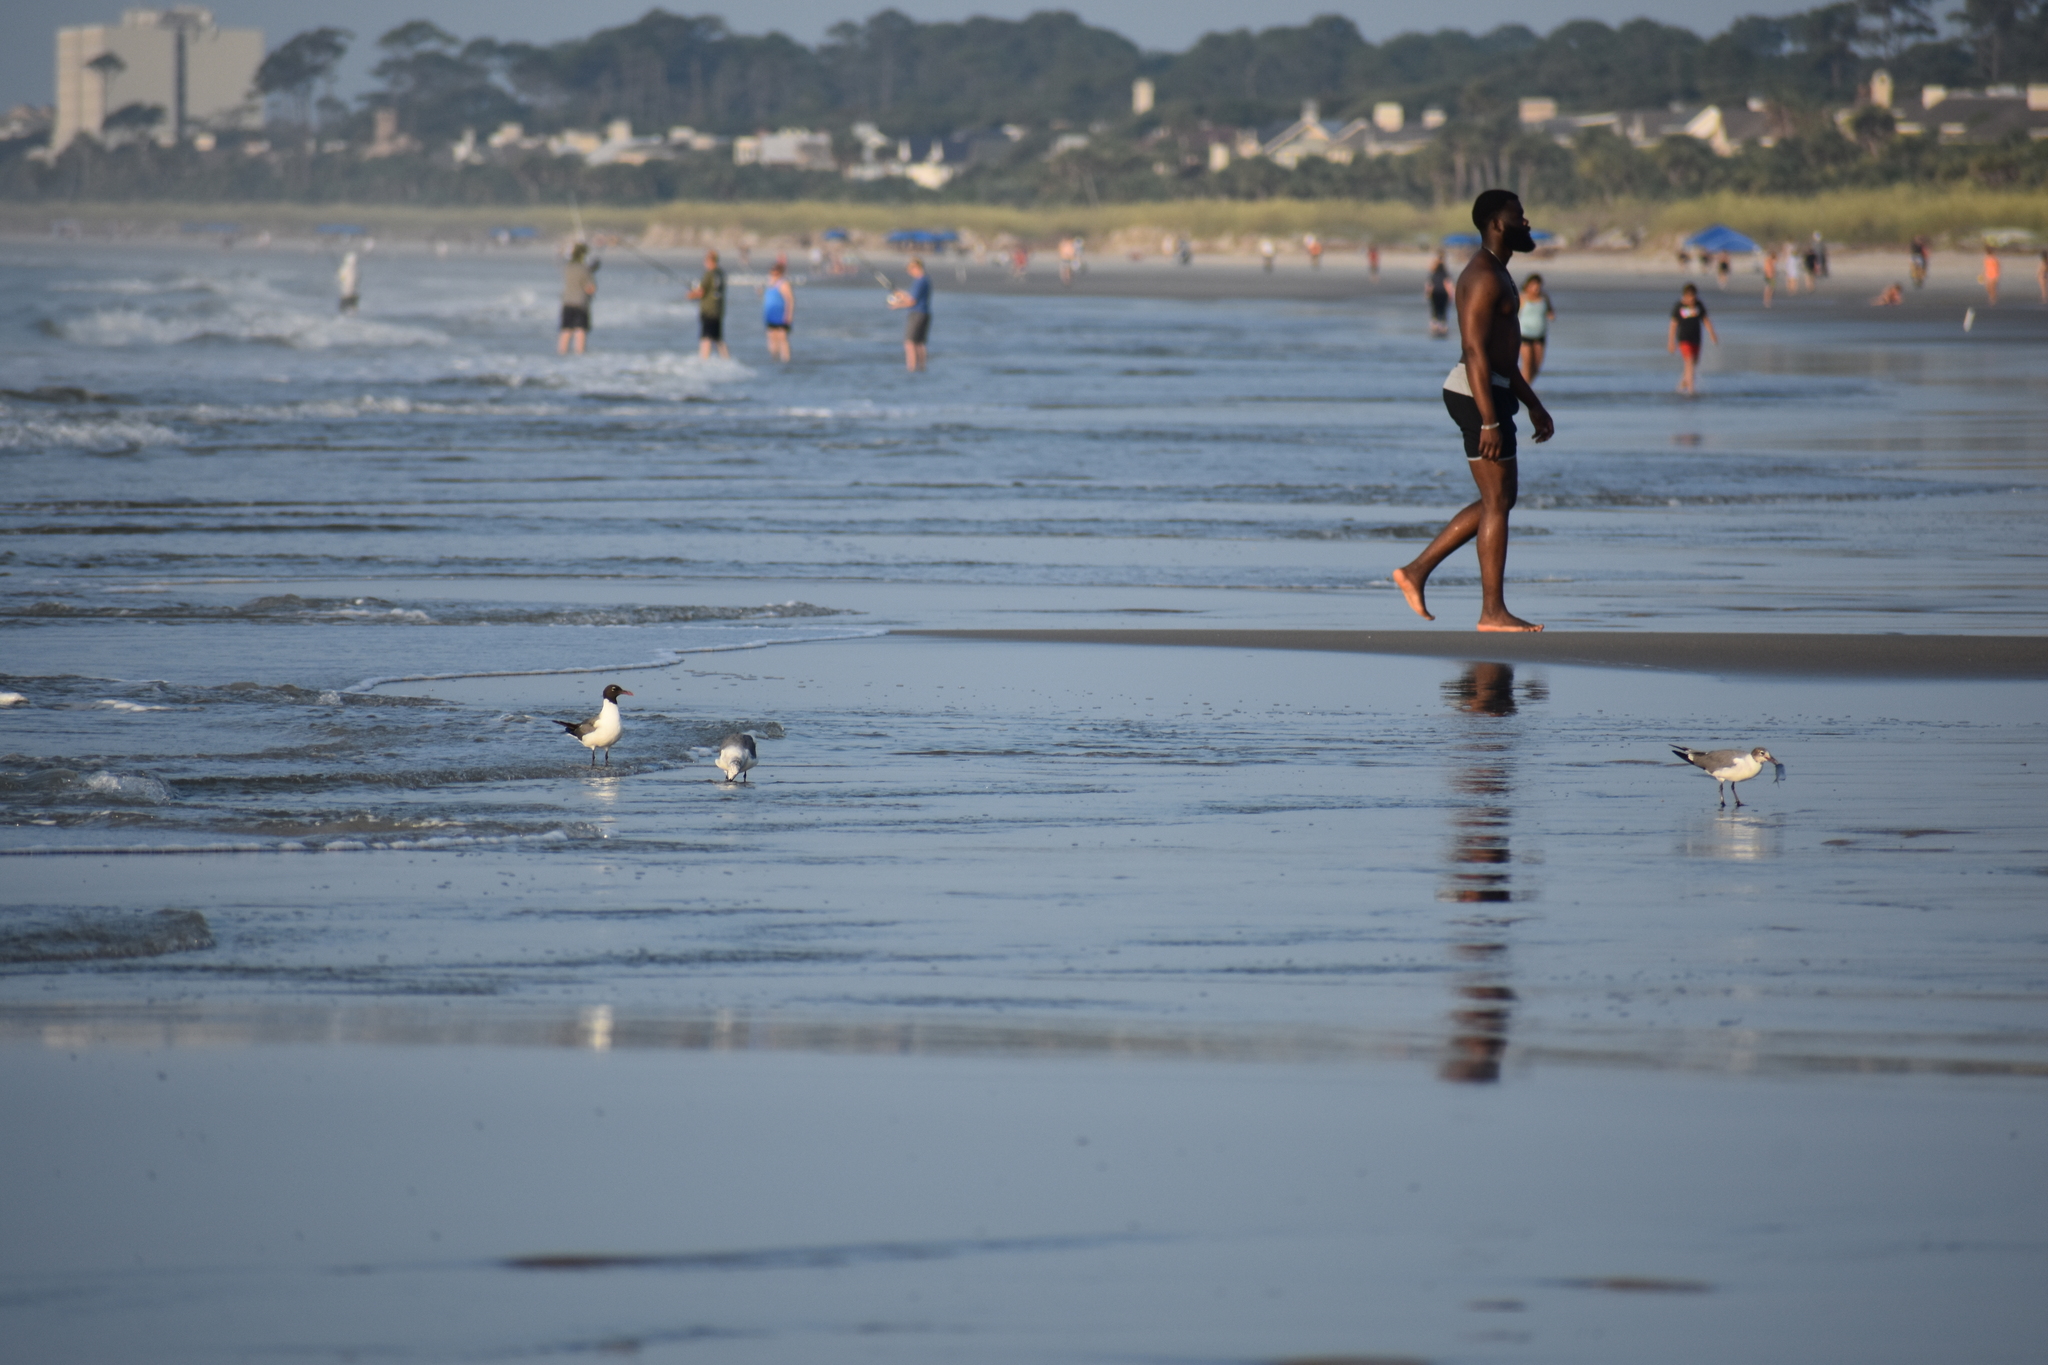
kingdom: Animalia
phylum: Chordata
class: Aves
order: Charadriiformes
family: Laridae
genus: Leucophaeus
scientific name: Leucophaeus atricilla
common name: Laughing gull
